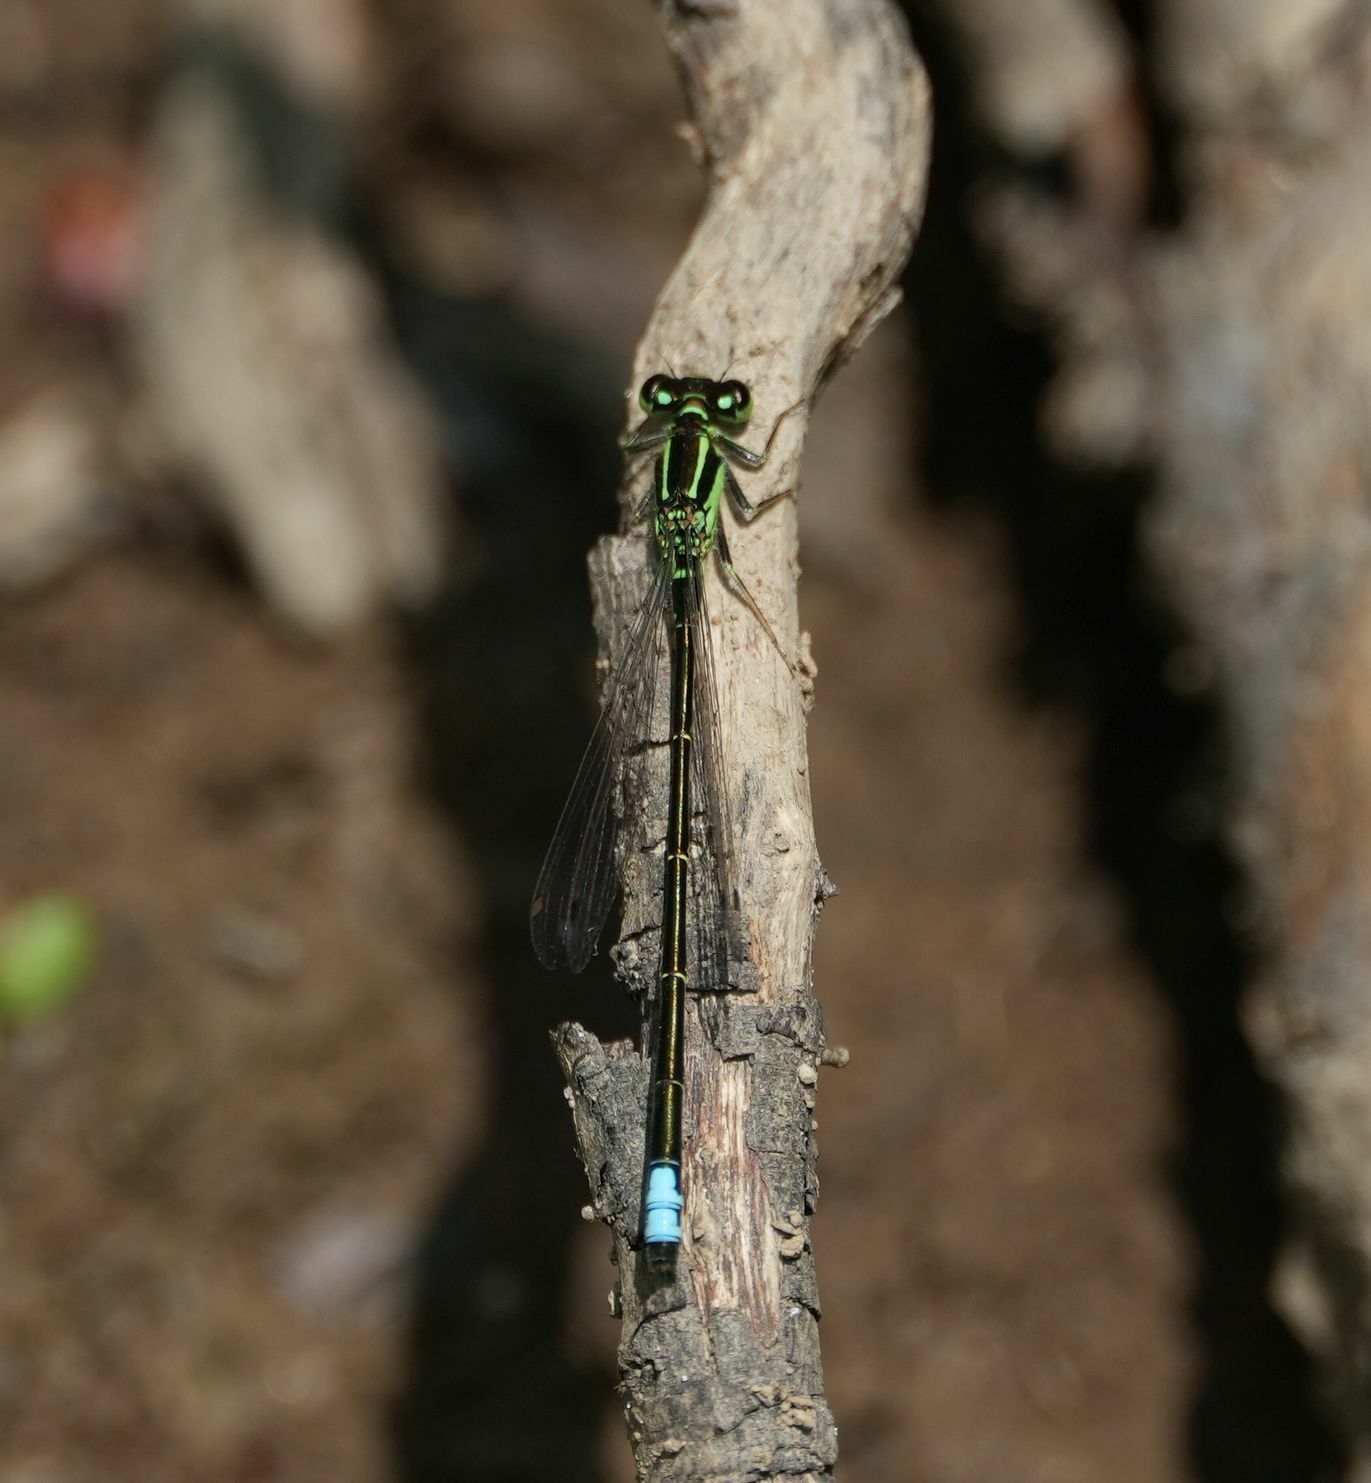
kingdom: Animalia
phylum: Arthropoda
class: Insecta
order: Odonata
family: Coenagrionidae
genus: Ischnura
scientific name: Ischnura verticalis
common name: Eastern forktail
